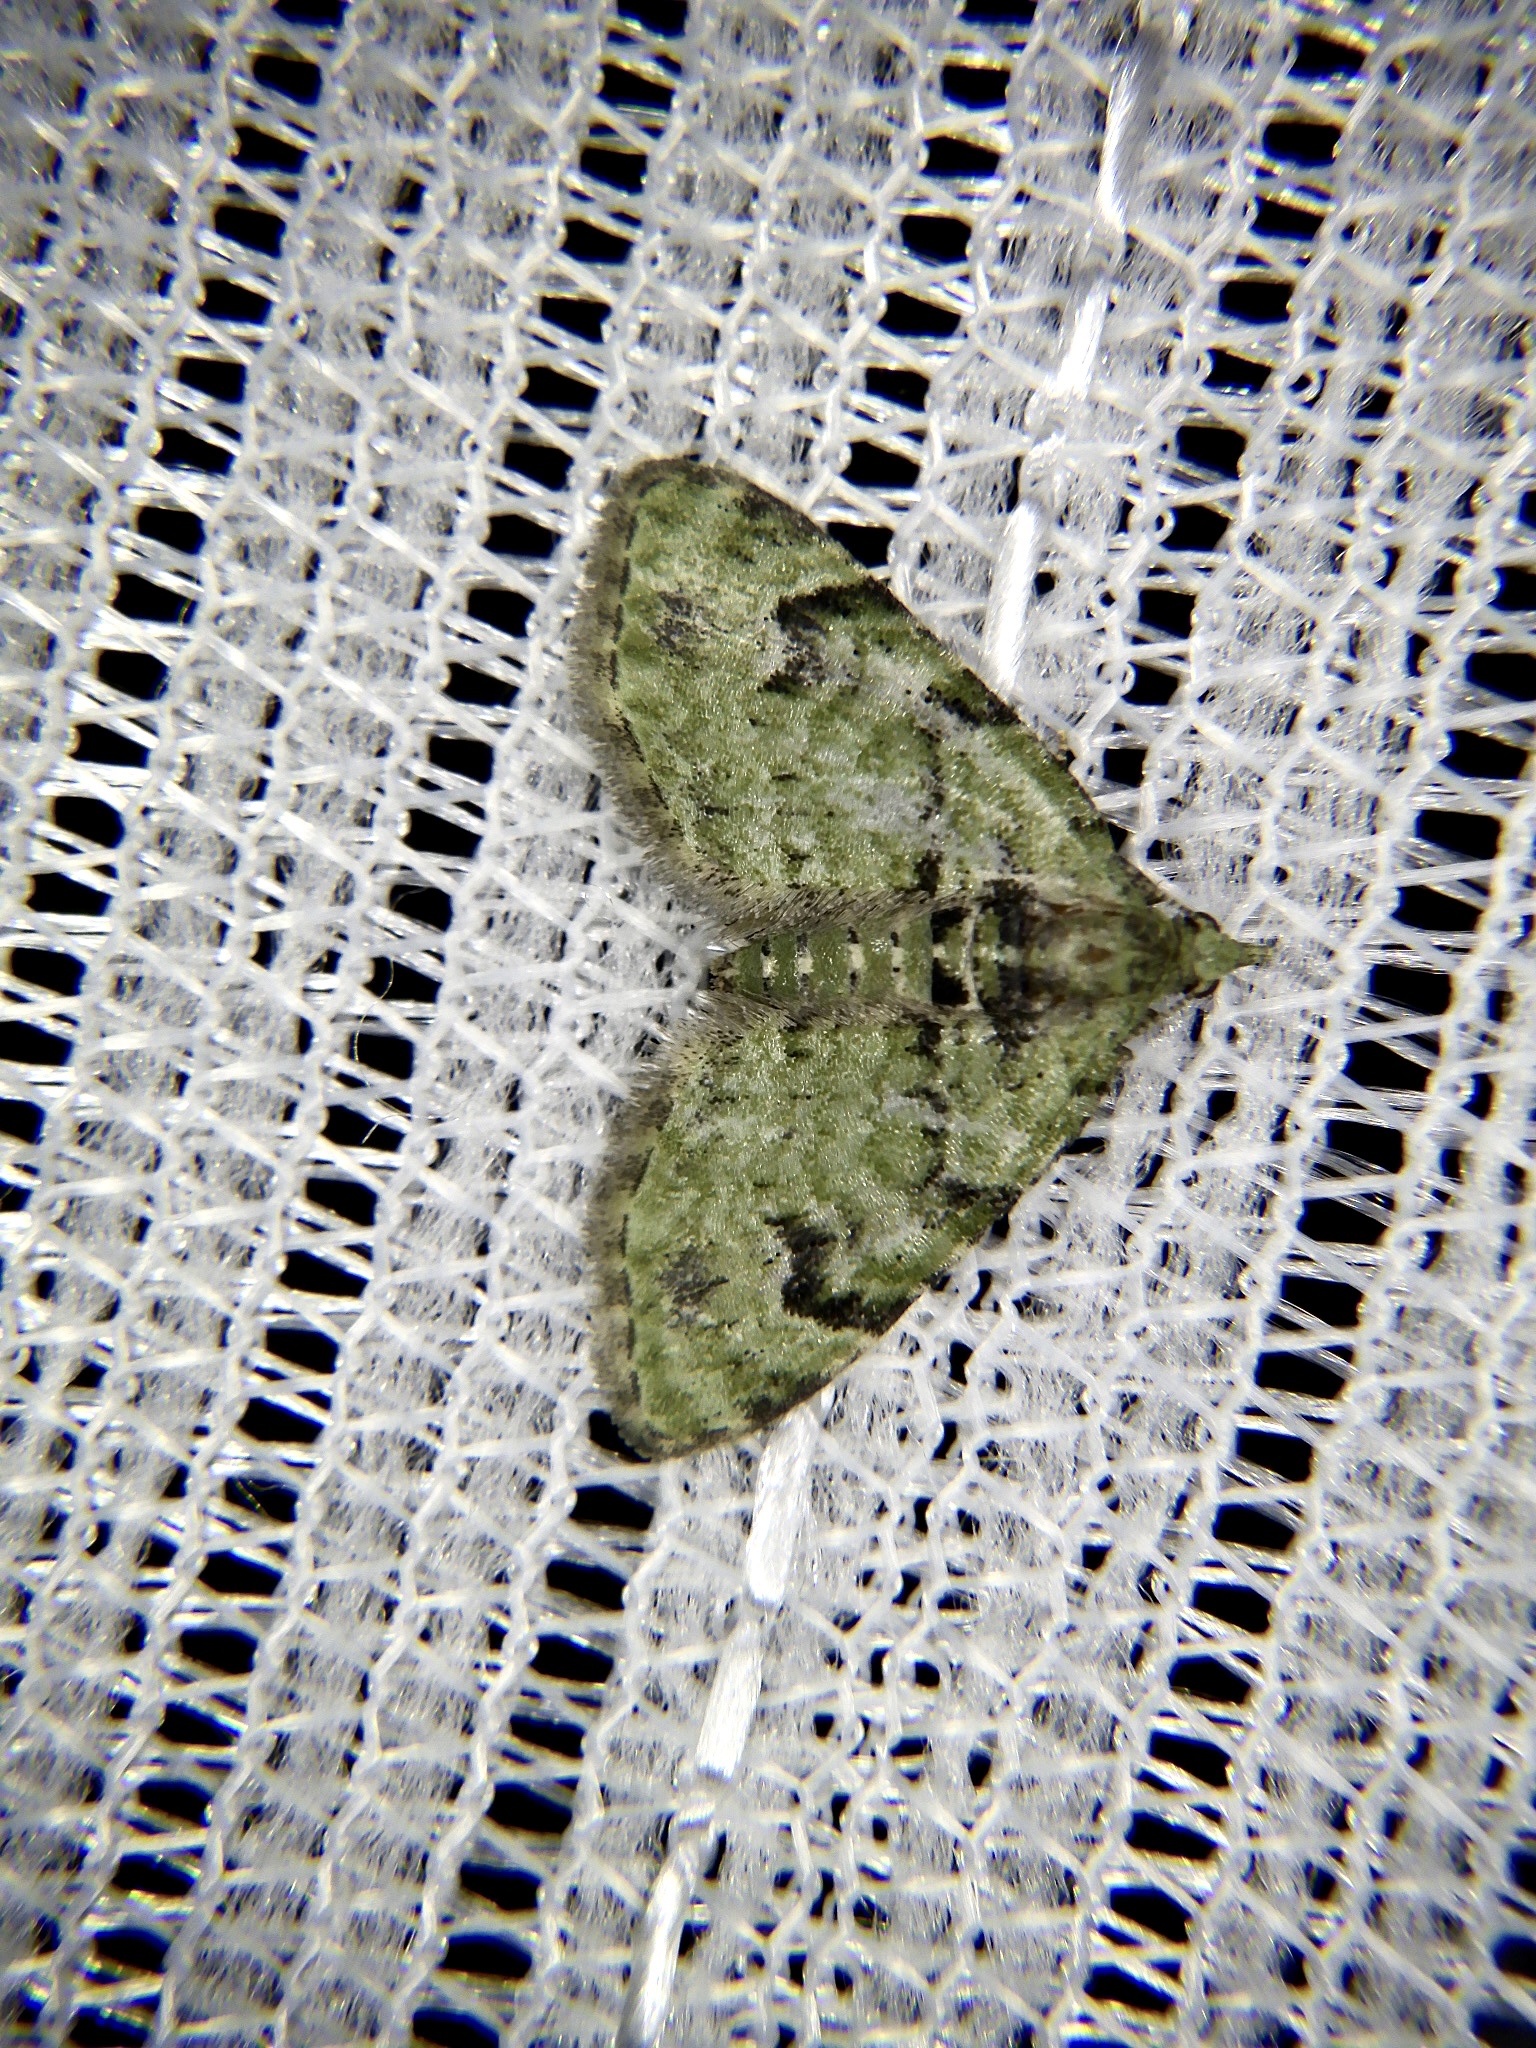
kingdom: Animalia
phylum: Arthropoda
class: Insecta
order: Lepidoptera
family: Geometridae
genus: Chloroclystis
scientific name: Chloroclystis v-ata
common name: V-pug
